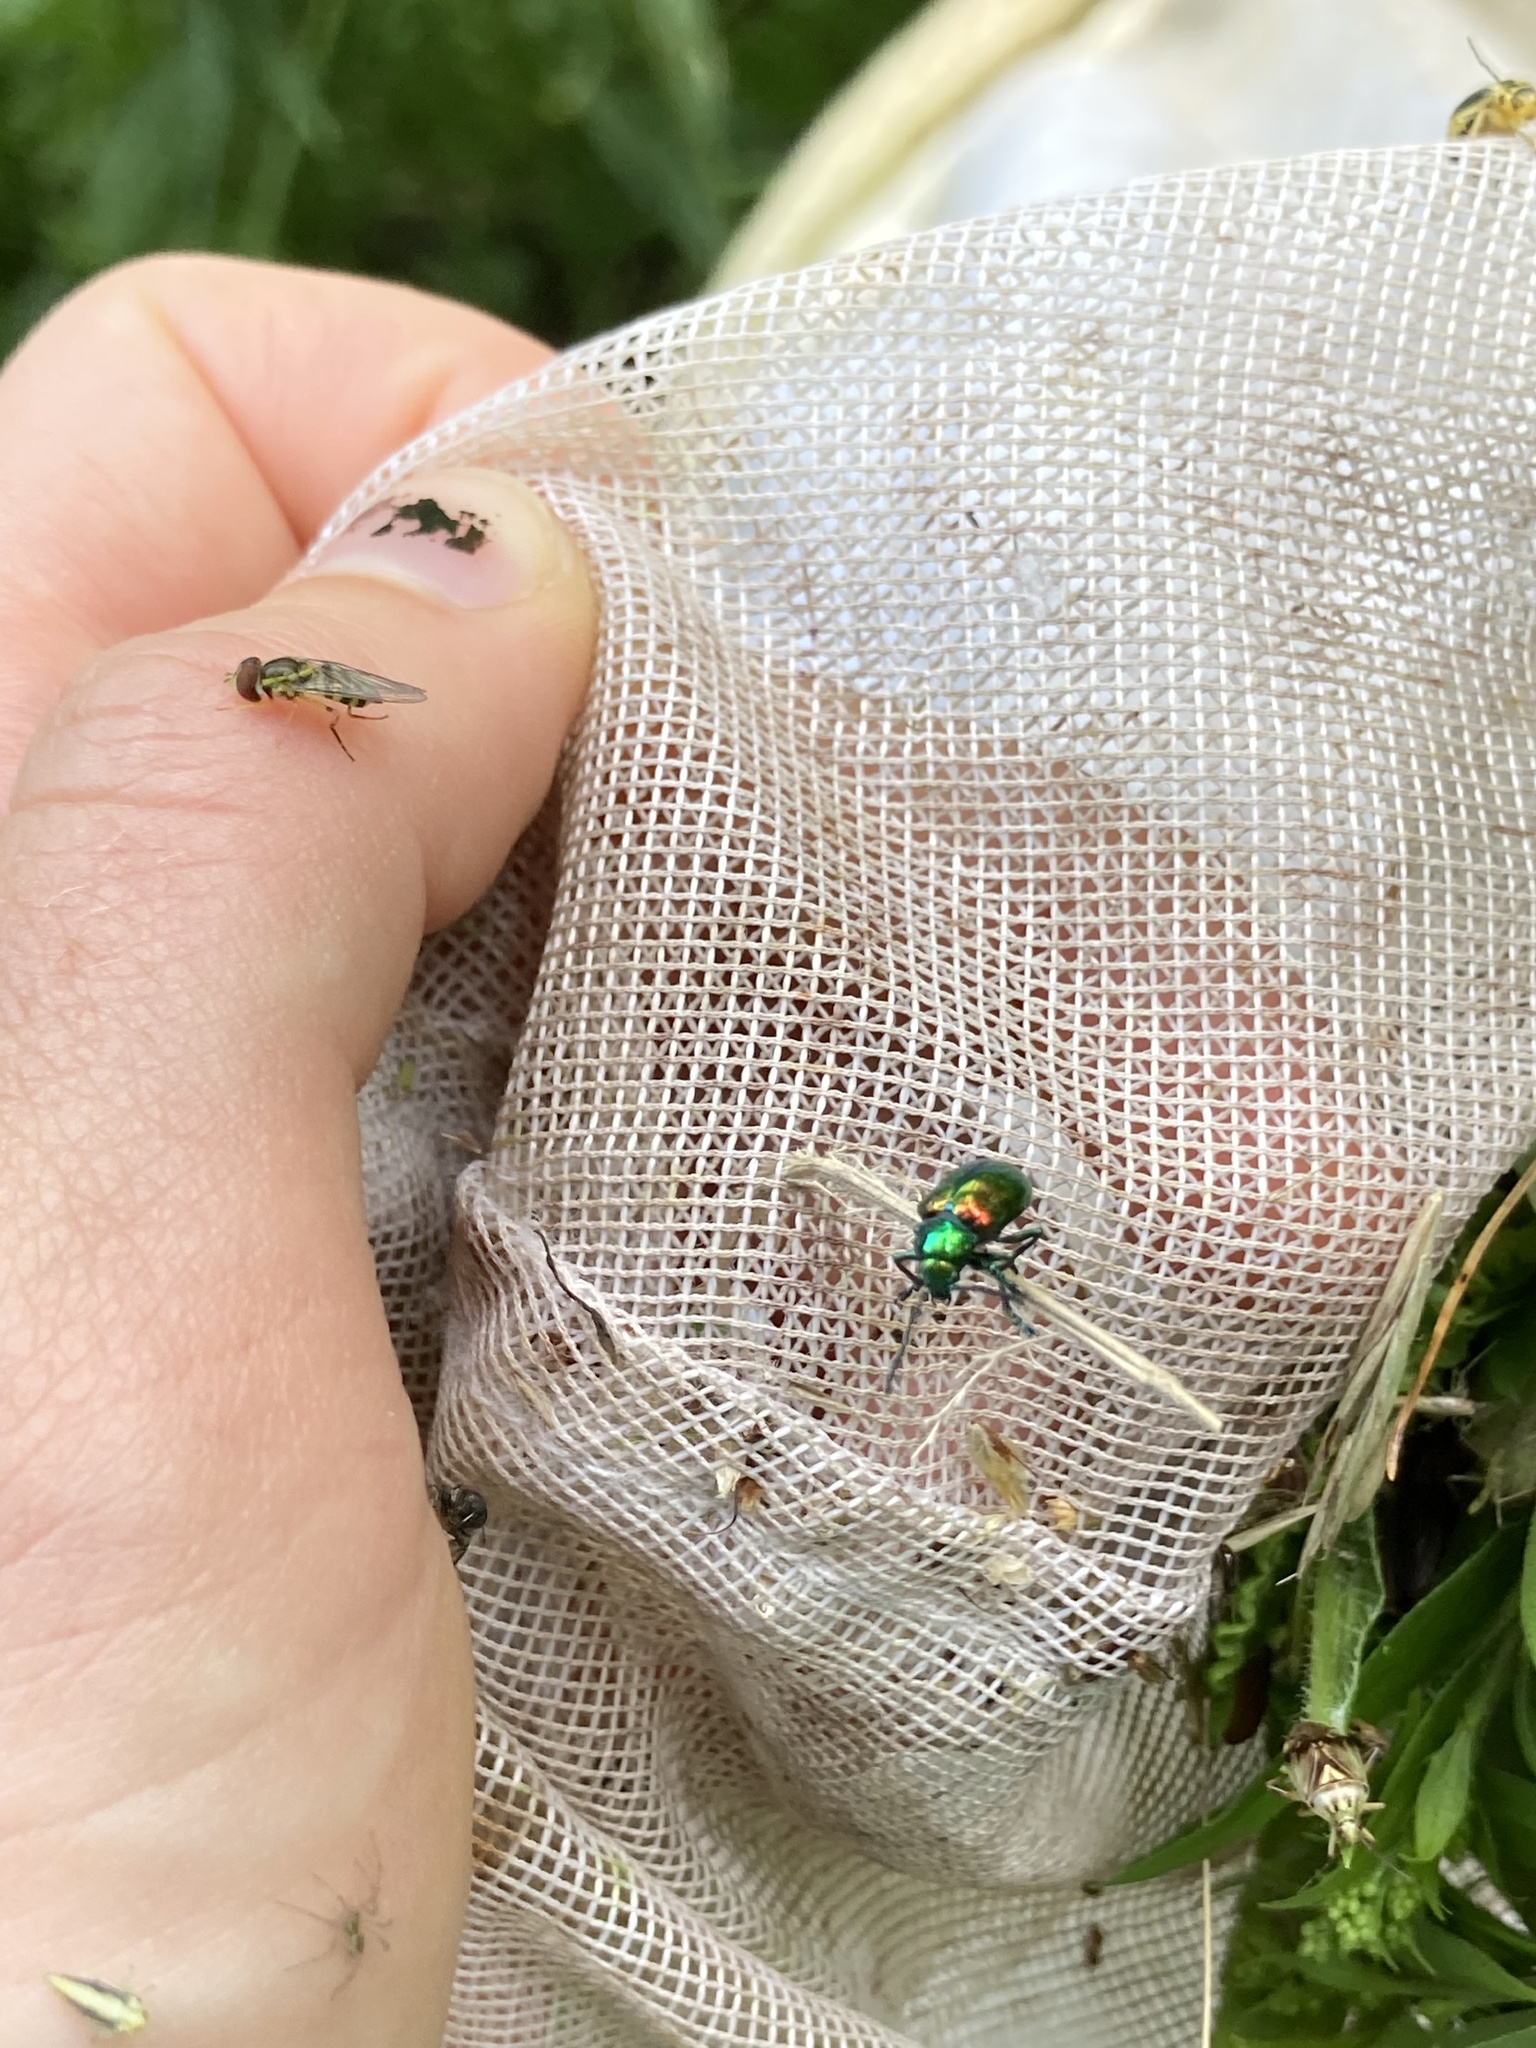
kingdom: Animalia
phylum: Arthropoda
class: Insecta
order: Coleoptera
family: Chrysomelidae
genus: Chrysochus
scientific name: Chrysochus auratus
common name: Dogbane leaf beetle
